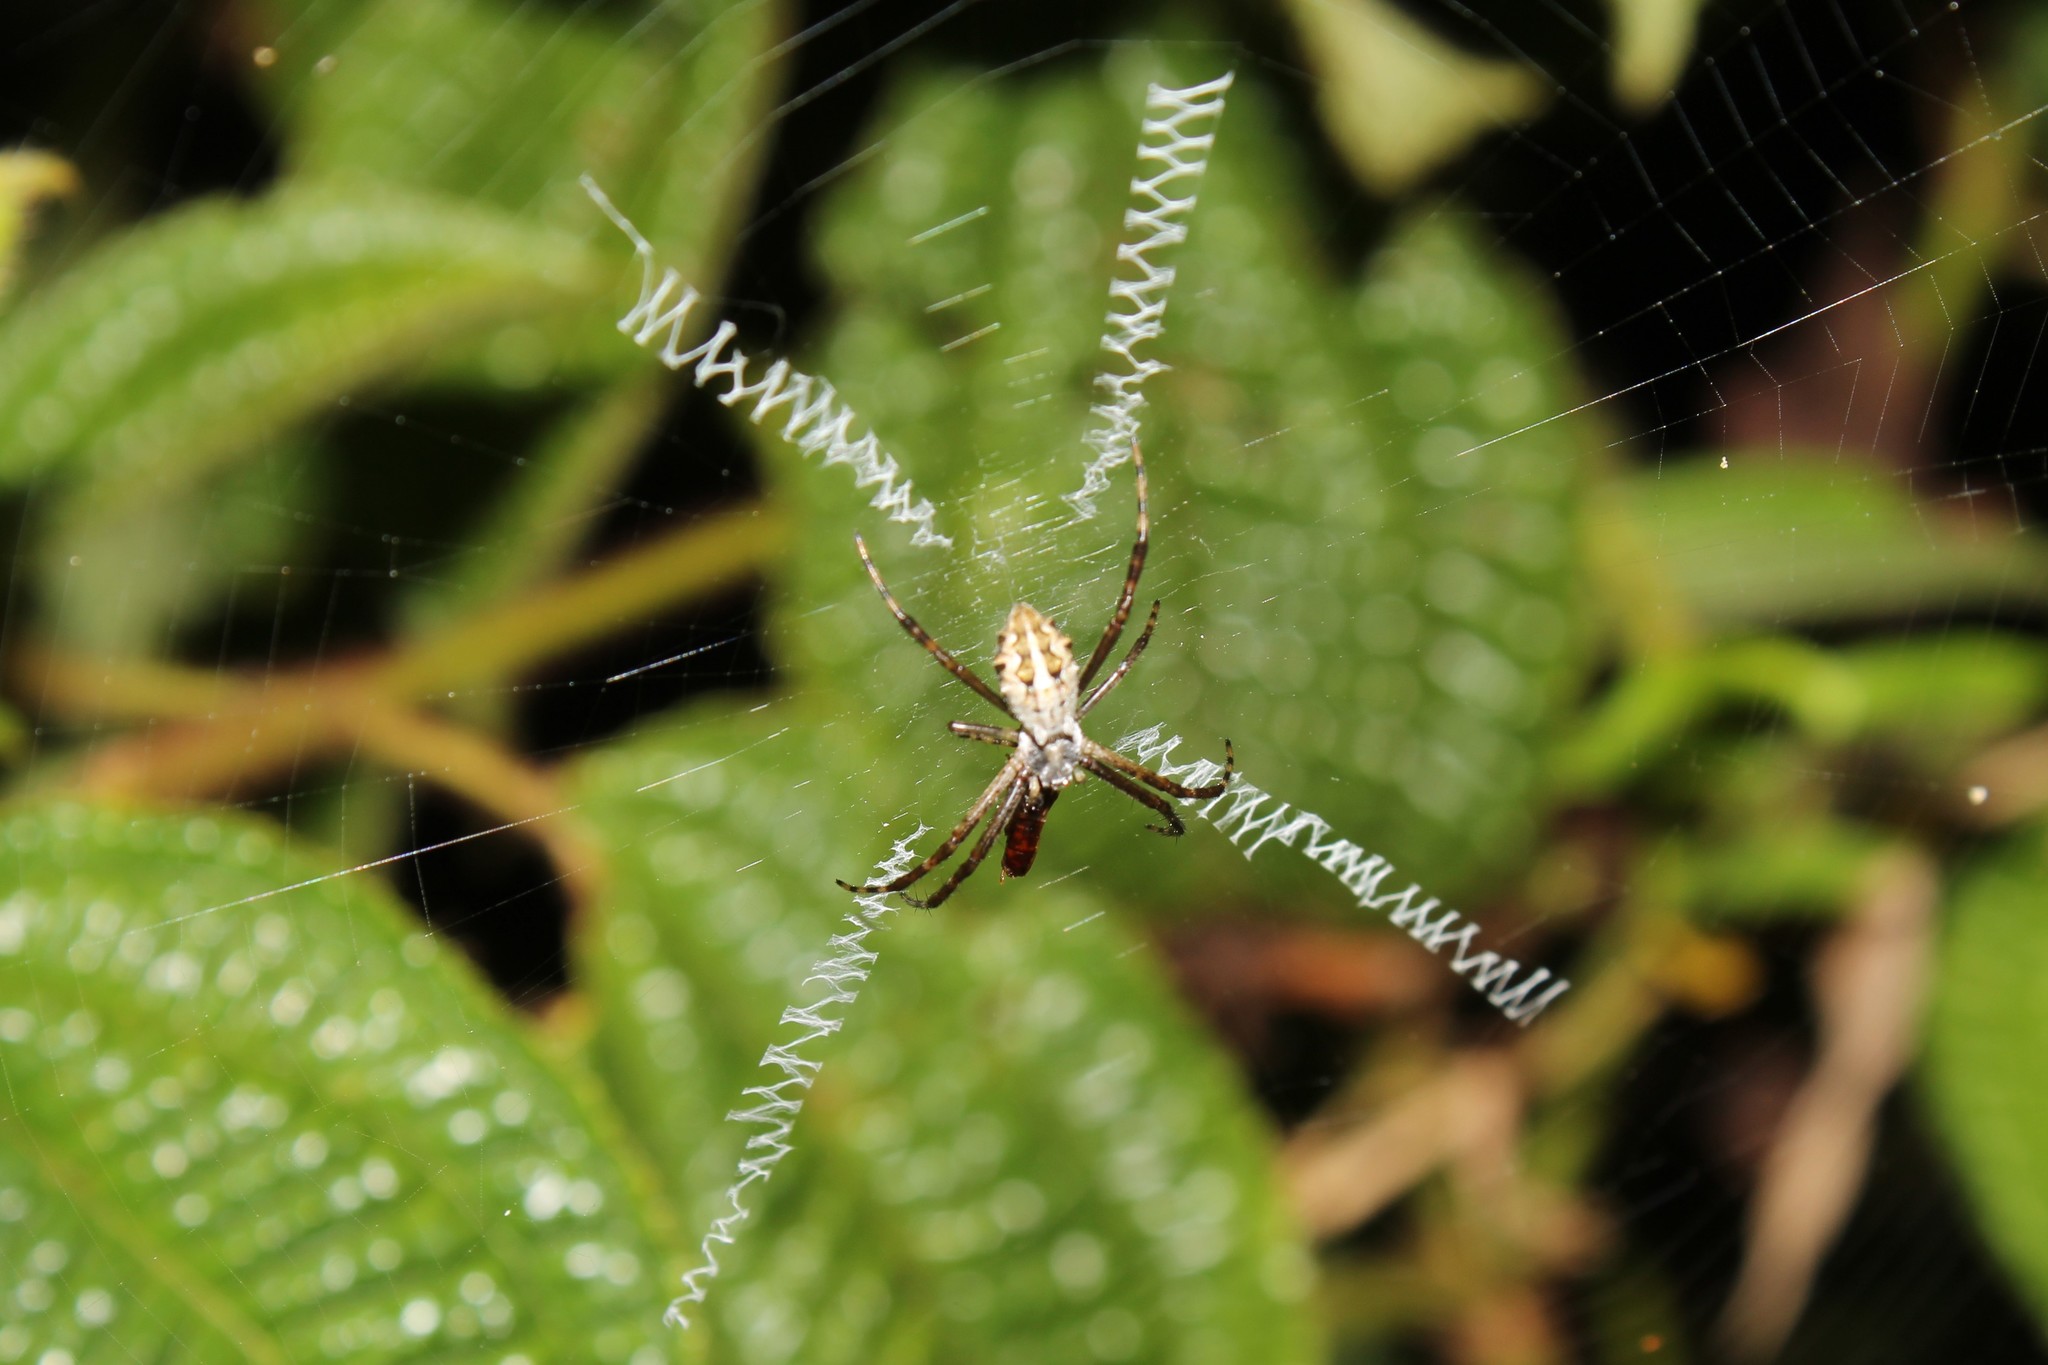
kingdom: Animalia
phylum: Arthropoda
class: Arachnida
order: Araneae
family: Araneidae
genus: Argiope
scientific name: Argiope argentata
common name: Orb weavers
